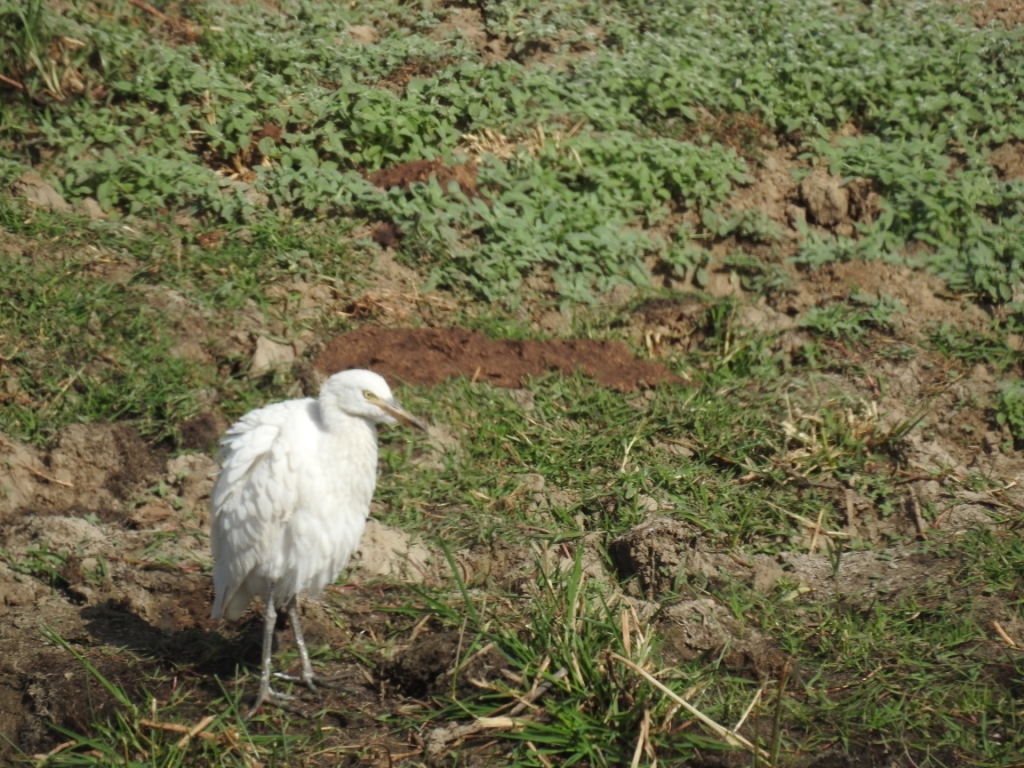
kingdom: Animalia
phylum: Chordata
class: Aves
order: Pelecaniformes
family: Ardeidae
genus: Bubulcus
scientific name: Bubulcus ibis
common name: Cattle egret
